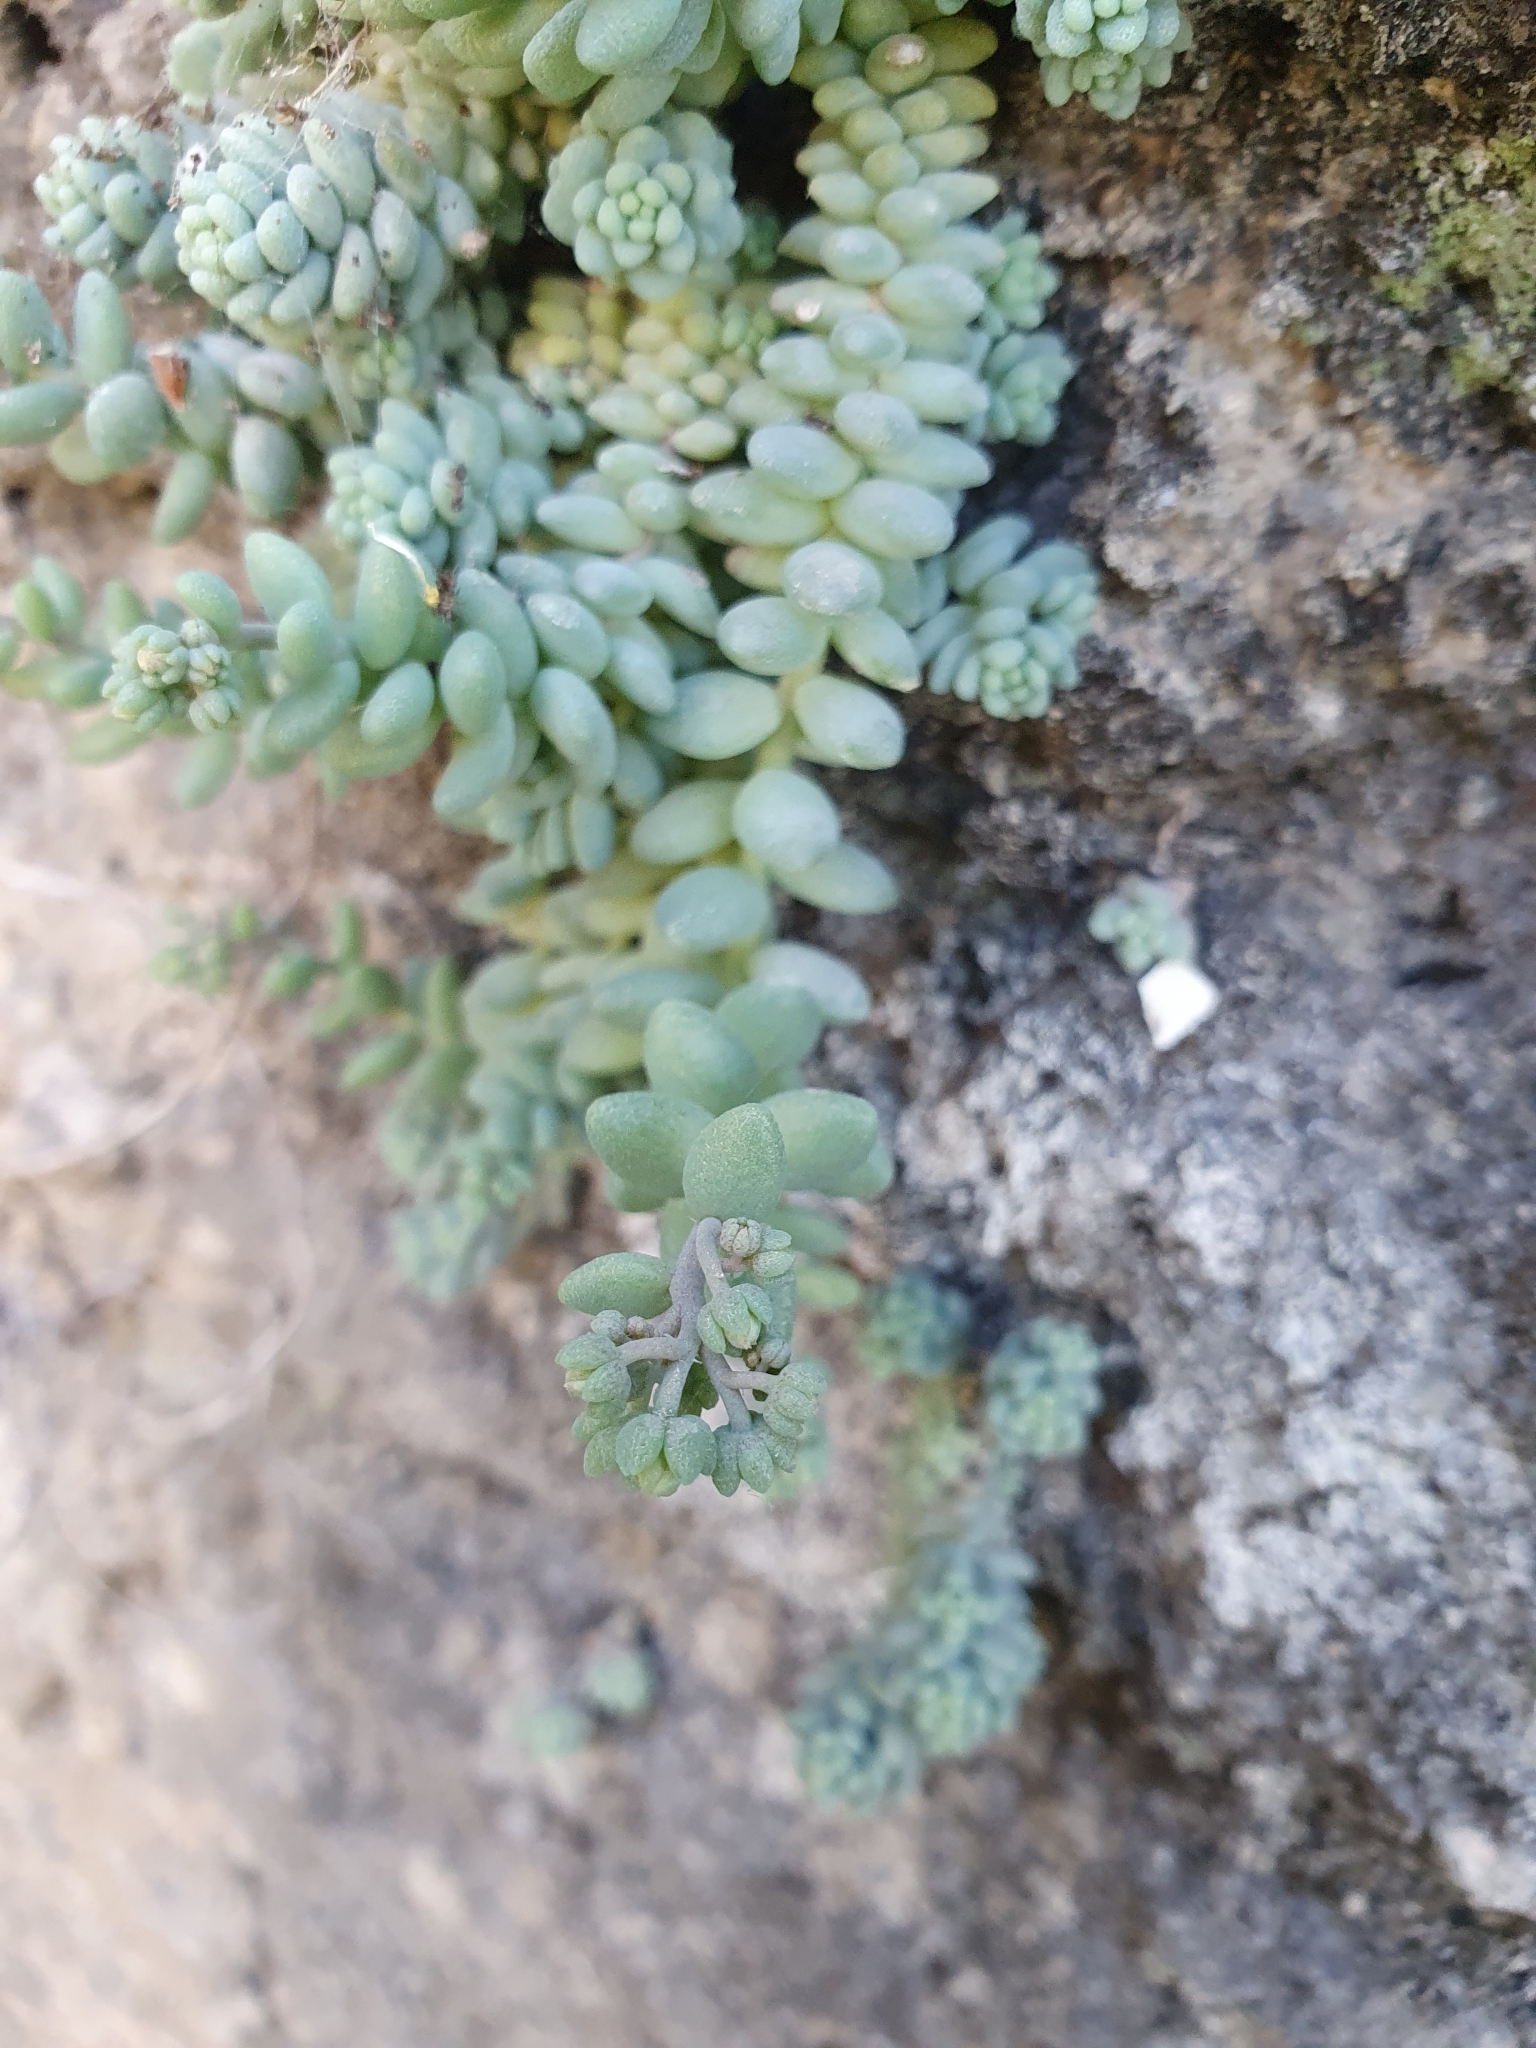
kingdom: Plantae
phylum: Tracheophyta
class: Magnoliopsida
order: Saxifragales
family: Crassulaceae
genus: Sedum
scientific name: Sedum dasyphyllum
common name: Thick-leaf stonecrop
